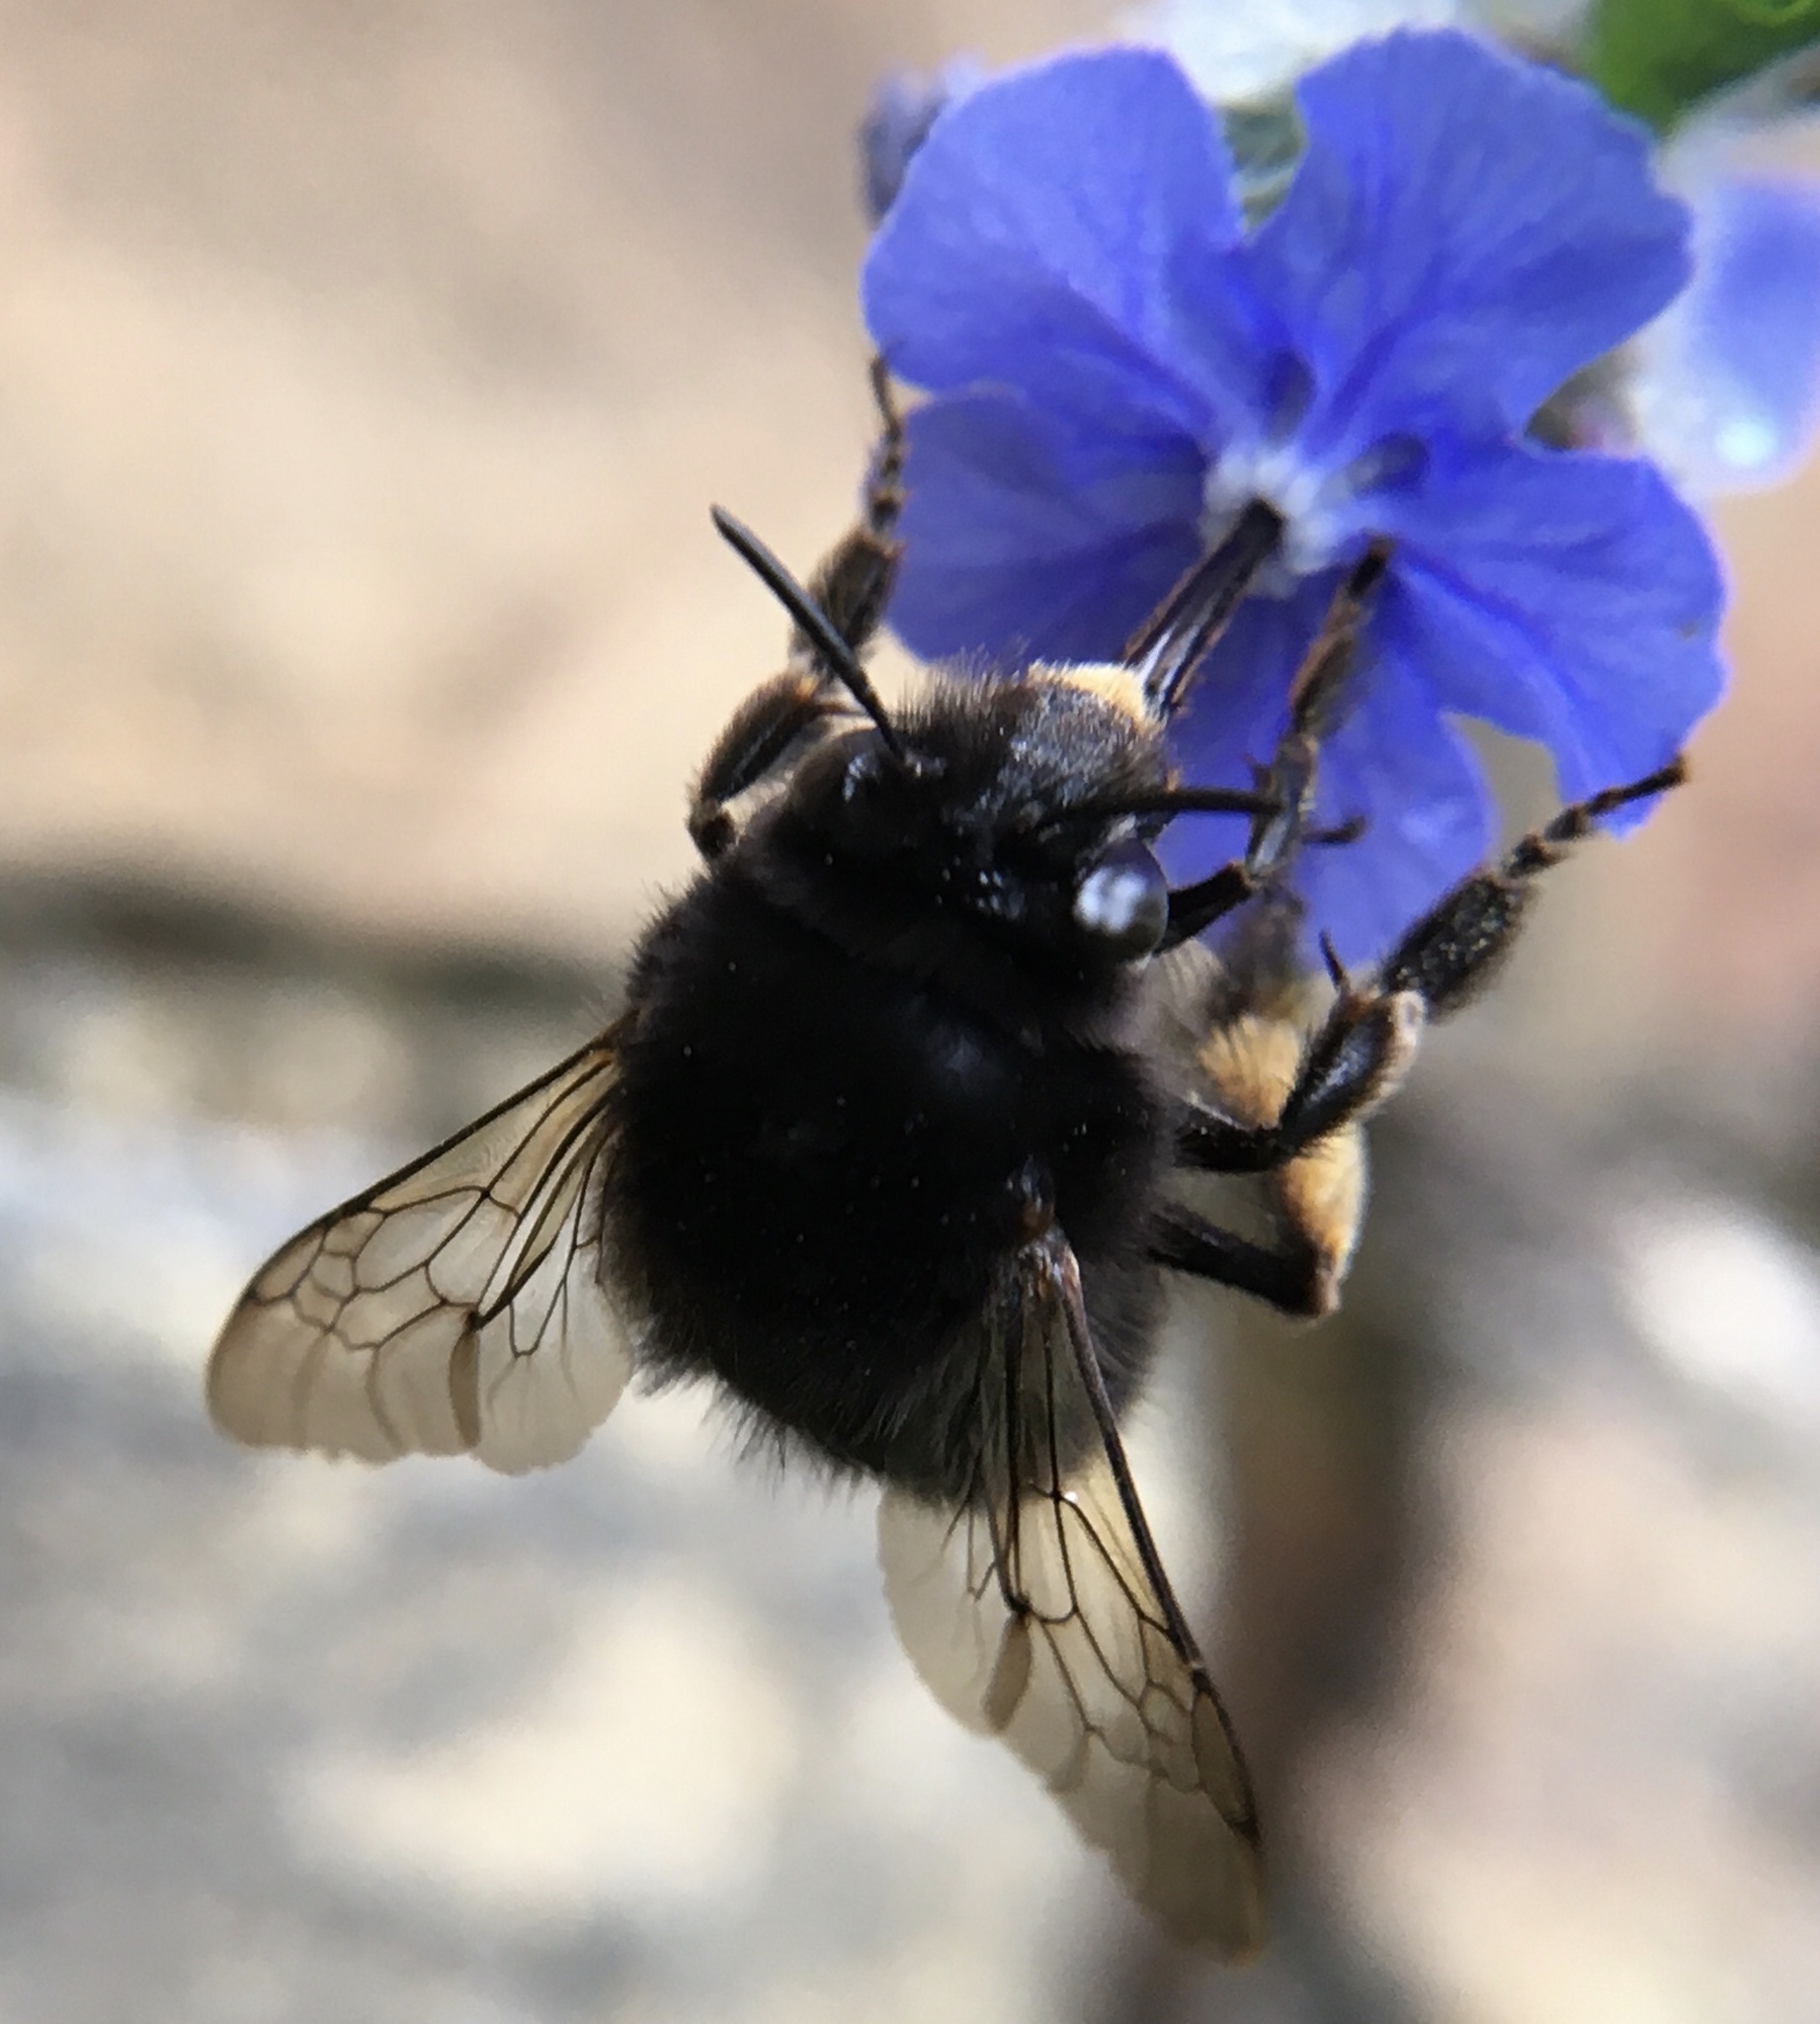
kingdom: Animalia
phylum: Arthropoda
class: Insecta
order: Hymenoptera
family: Apidae
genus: Anthophora
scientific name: Anthophora plumipes
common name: Hairy-footed flower bee
